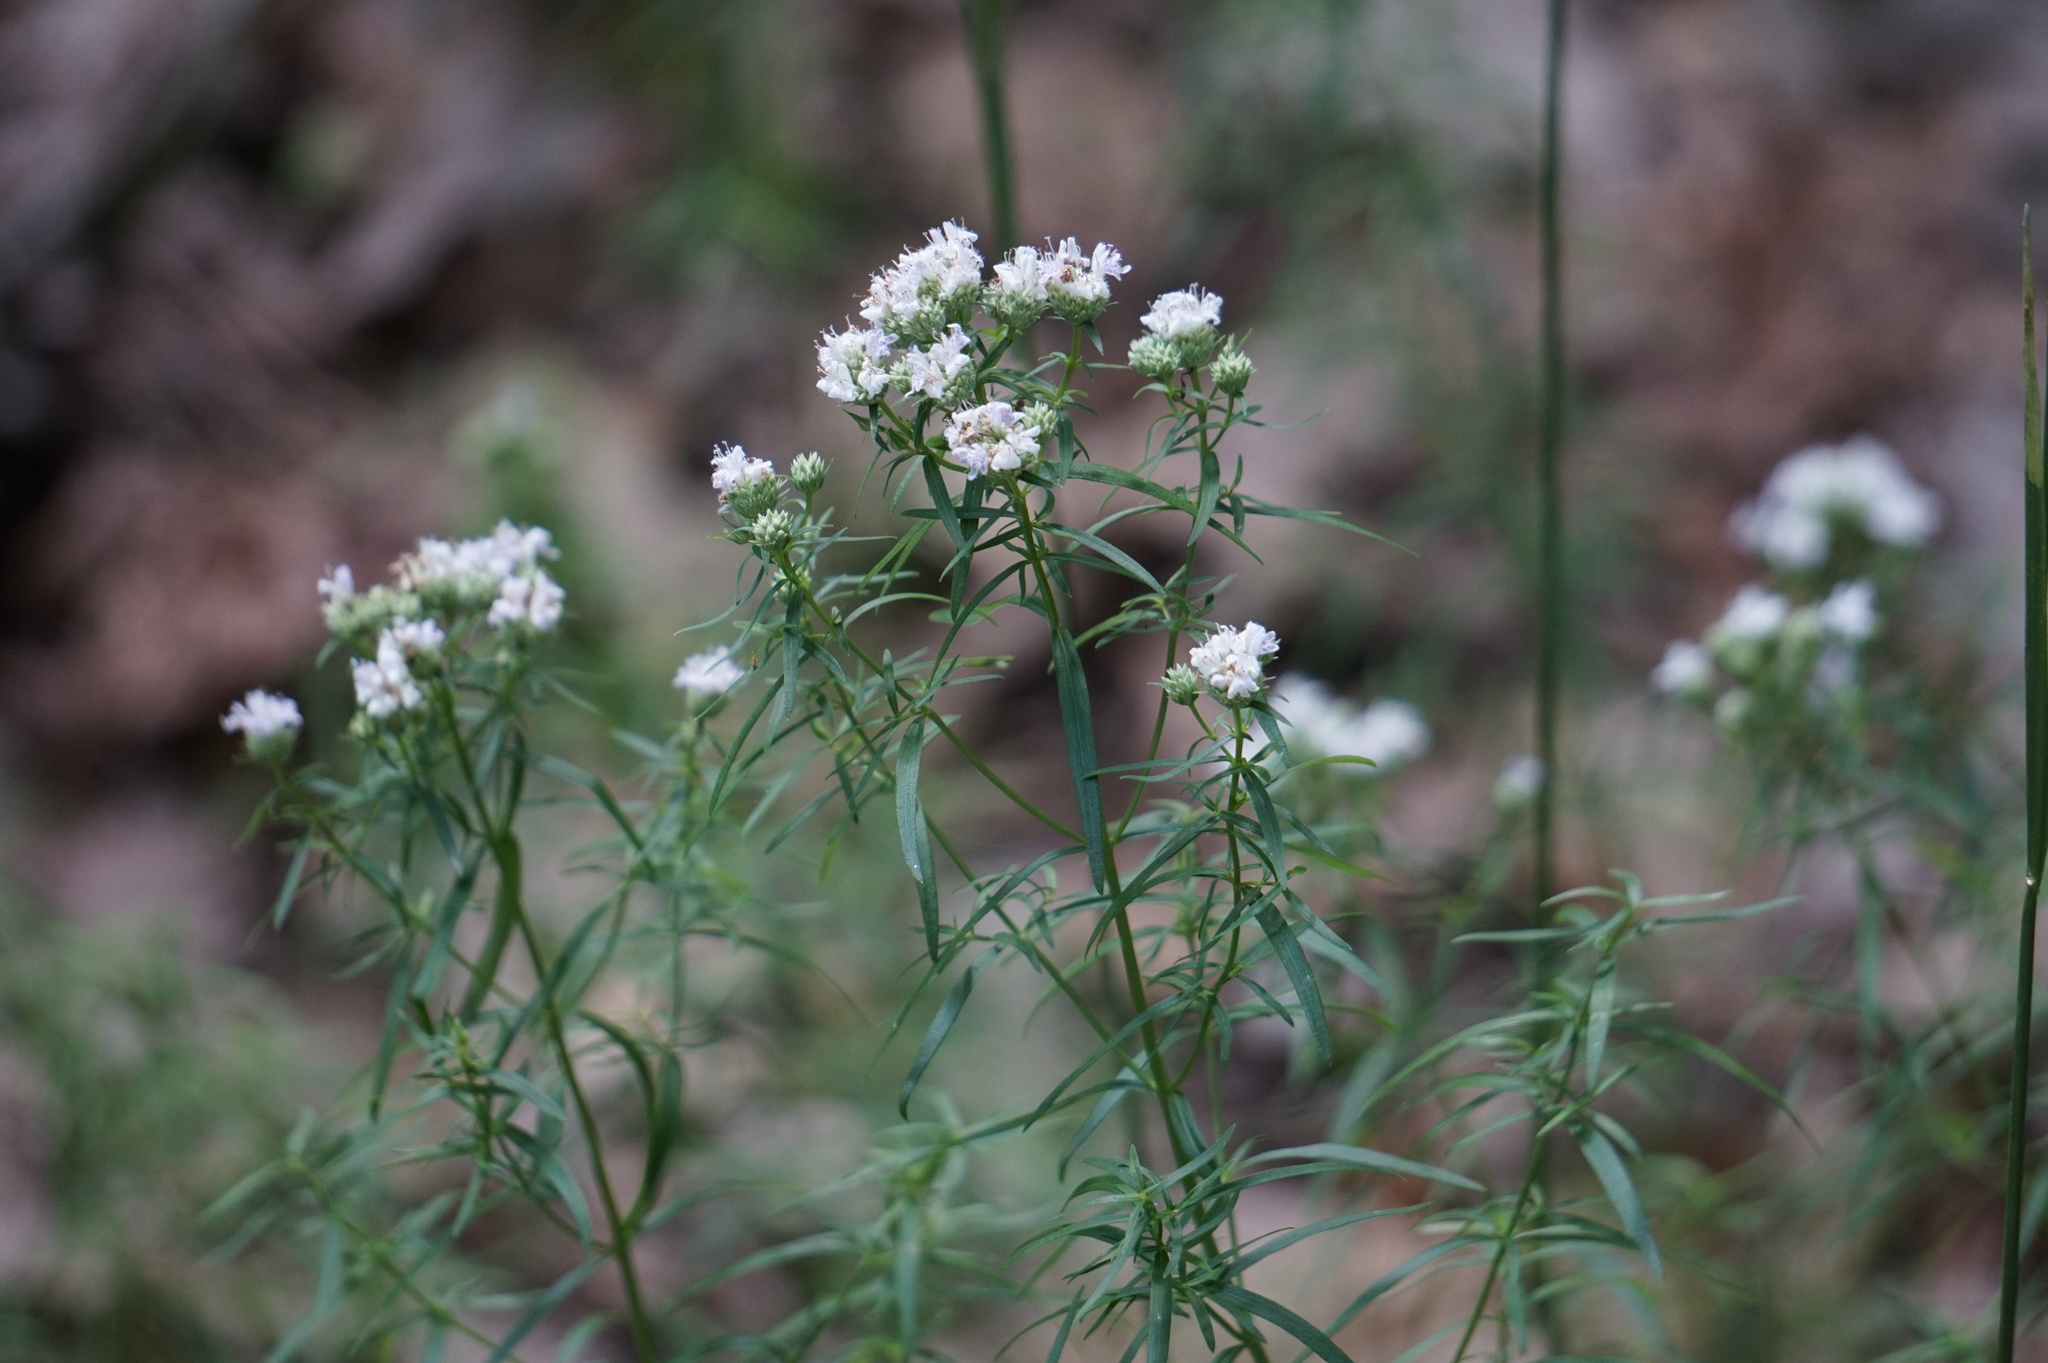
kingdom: Plantae
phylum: Tracheophyta
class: Magnoliopsida
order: Lamiales
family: Lamiaceae
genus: Pycnanthemum
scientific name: Pycnanthemum tenuifolium
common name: Narrow-leaf mountain-mint
